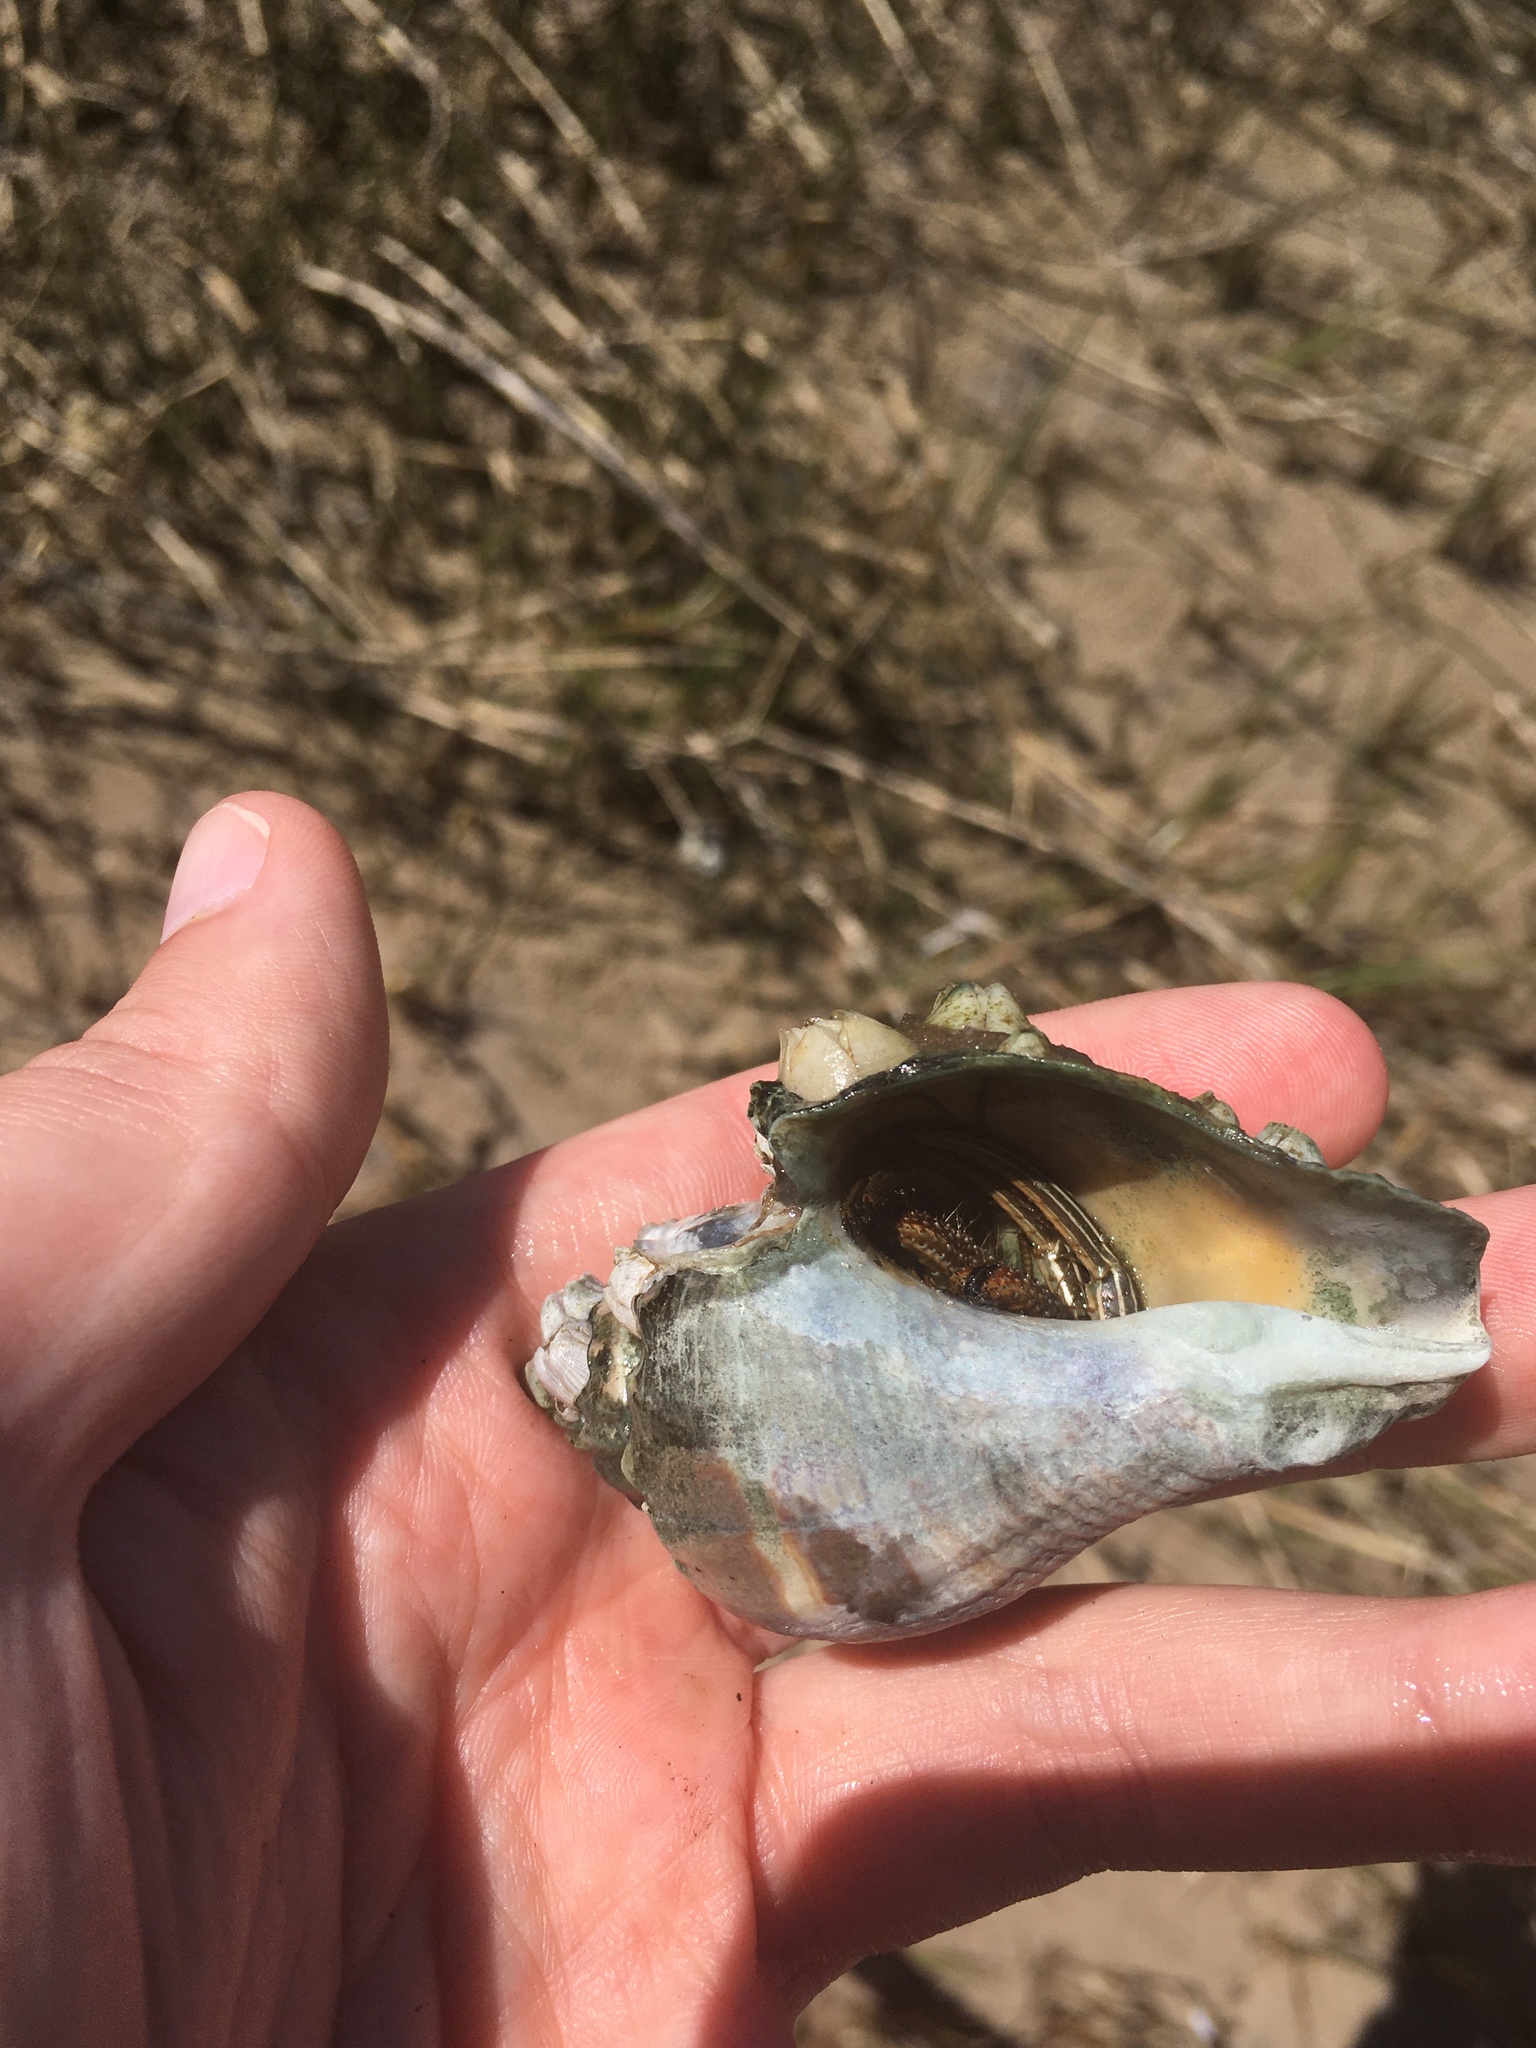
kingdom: Animalia
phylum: Arthropoda
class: Malacostraca
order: Decapoda
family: Diogenidae
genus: Clibanarius
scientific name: Clibanarius vittatus
